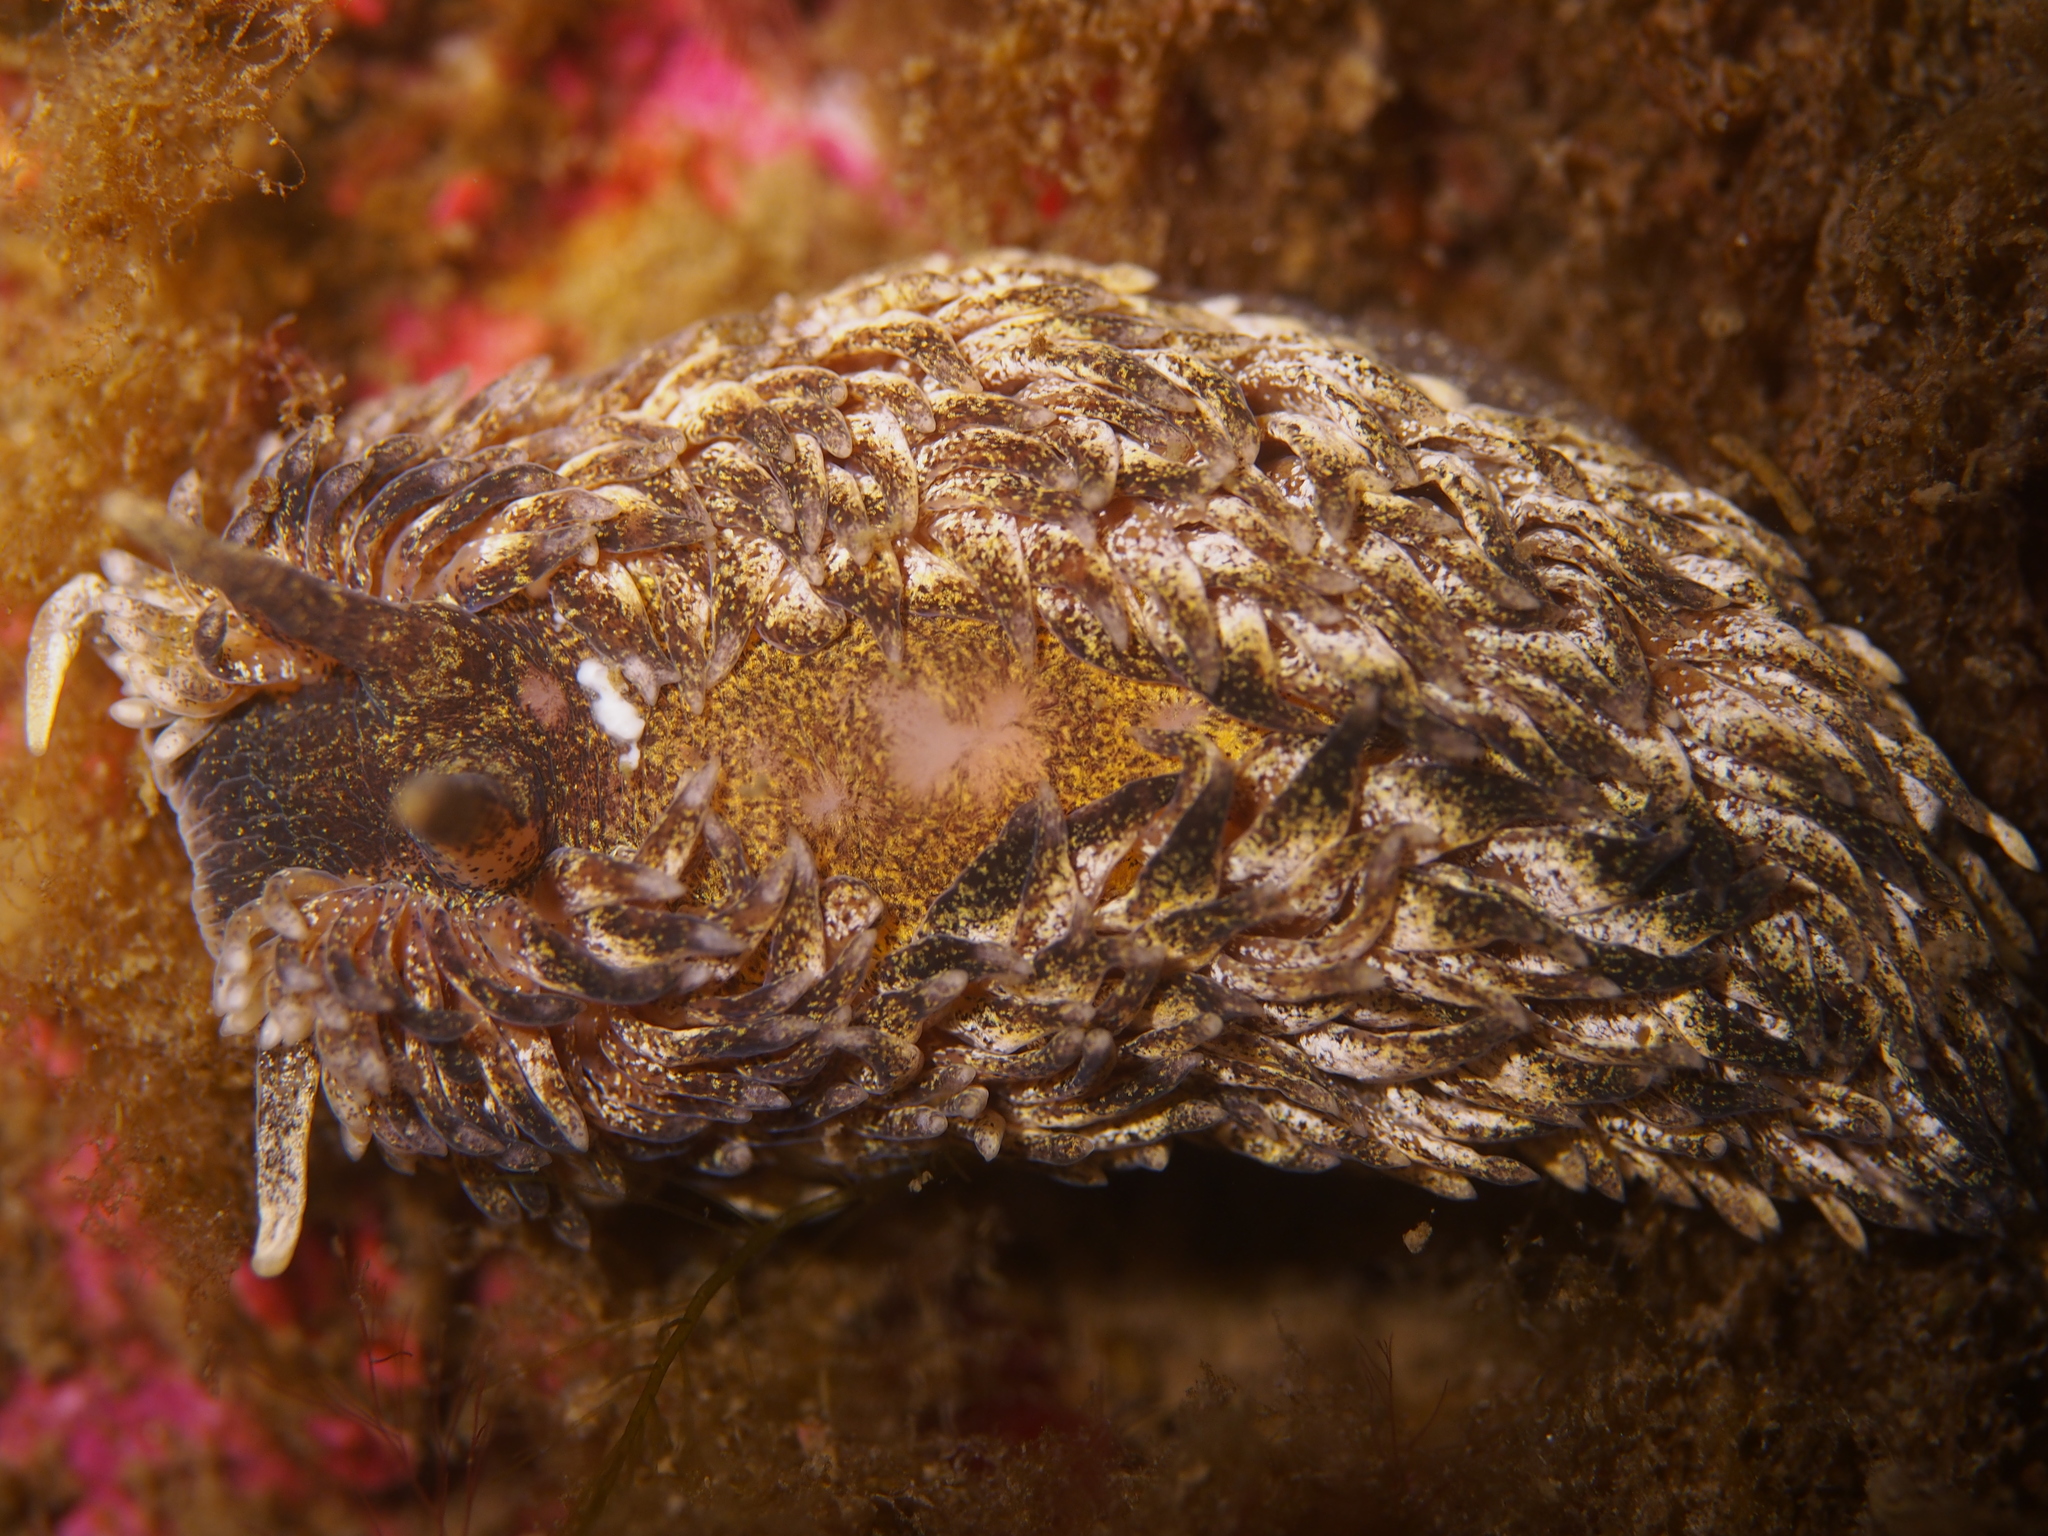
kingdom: Animalia
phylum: Mollusca
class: Gastropoda
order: Nudibranchia
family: Aeolidiidae
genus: Aeolidia
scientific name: Aeolidia papillosa
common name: Common grey sea slug
